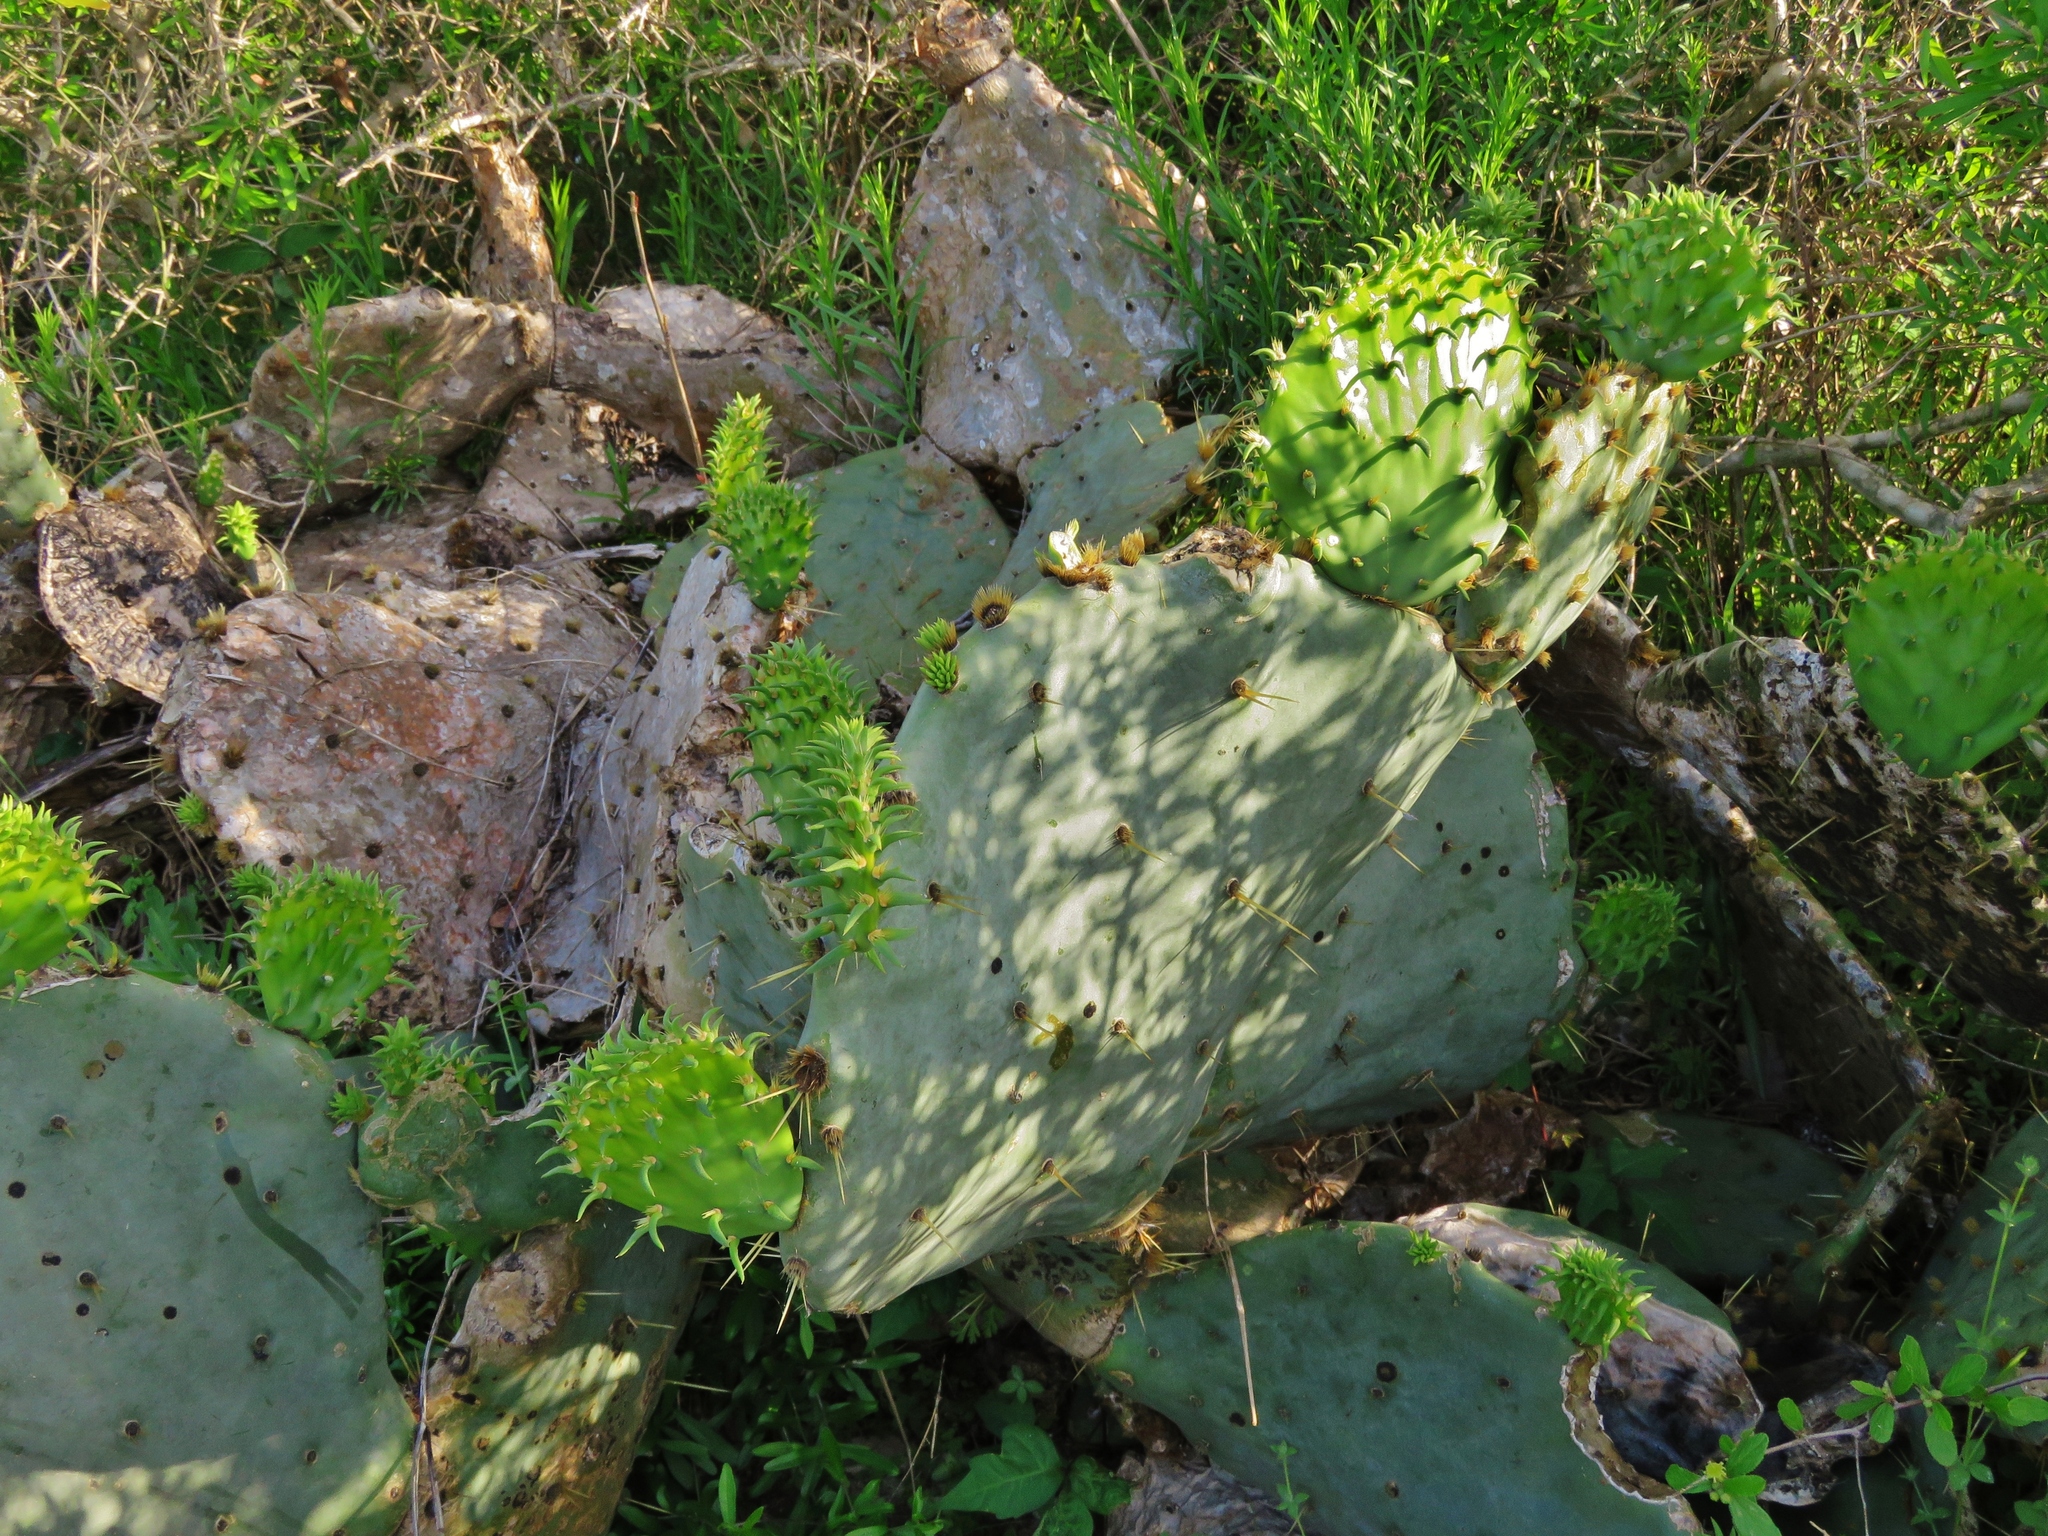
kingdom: Plantae
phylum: Tracheophyta
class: Magnoliopsida
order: Caryophyllales
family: Cactaceae
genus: Opuntia
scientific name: Opuntia engelmannii
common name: Cactus-apple
